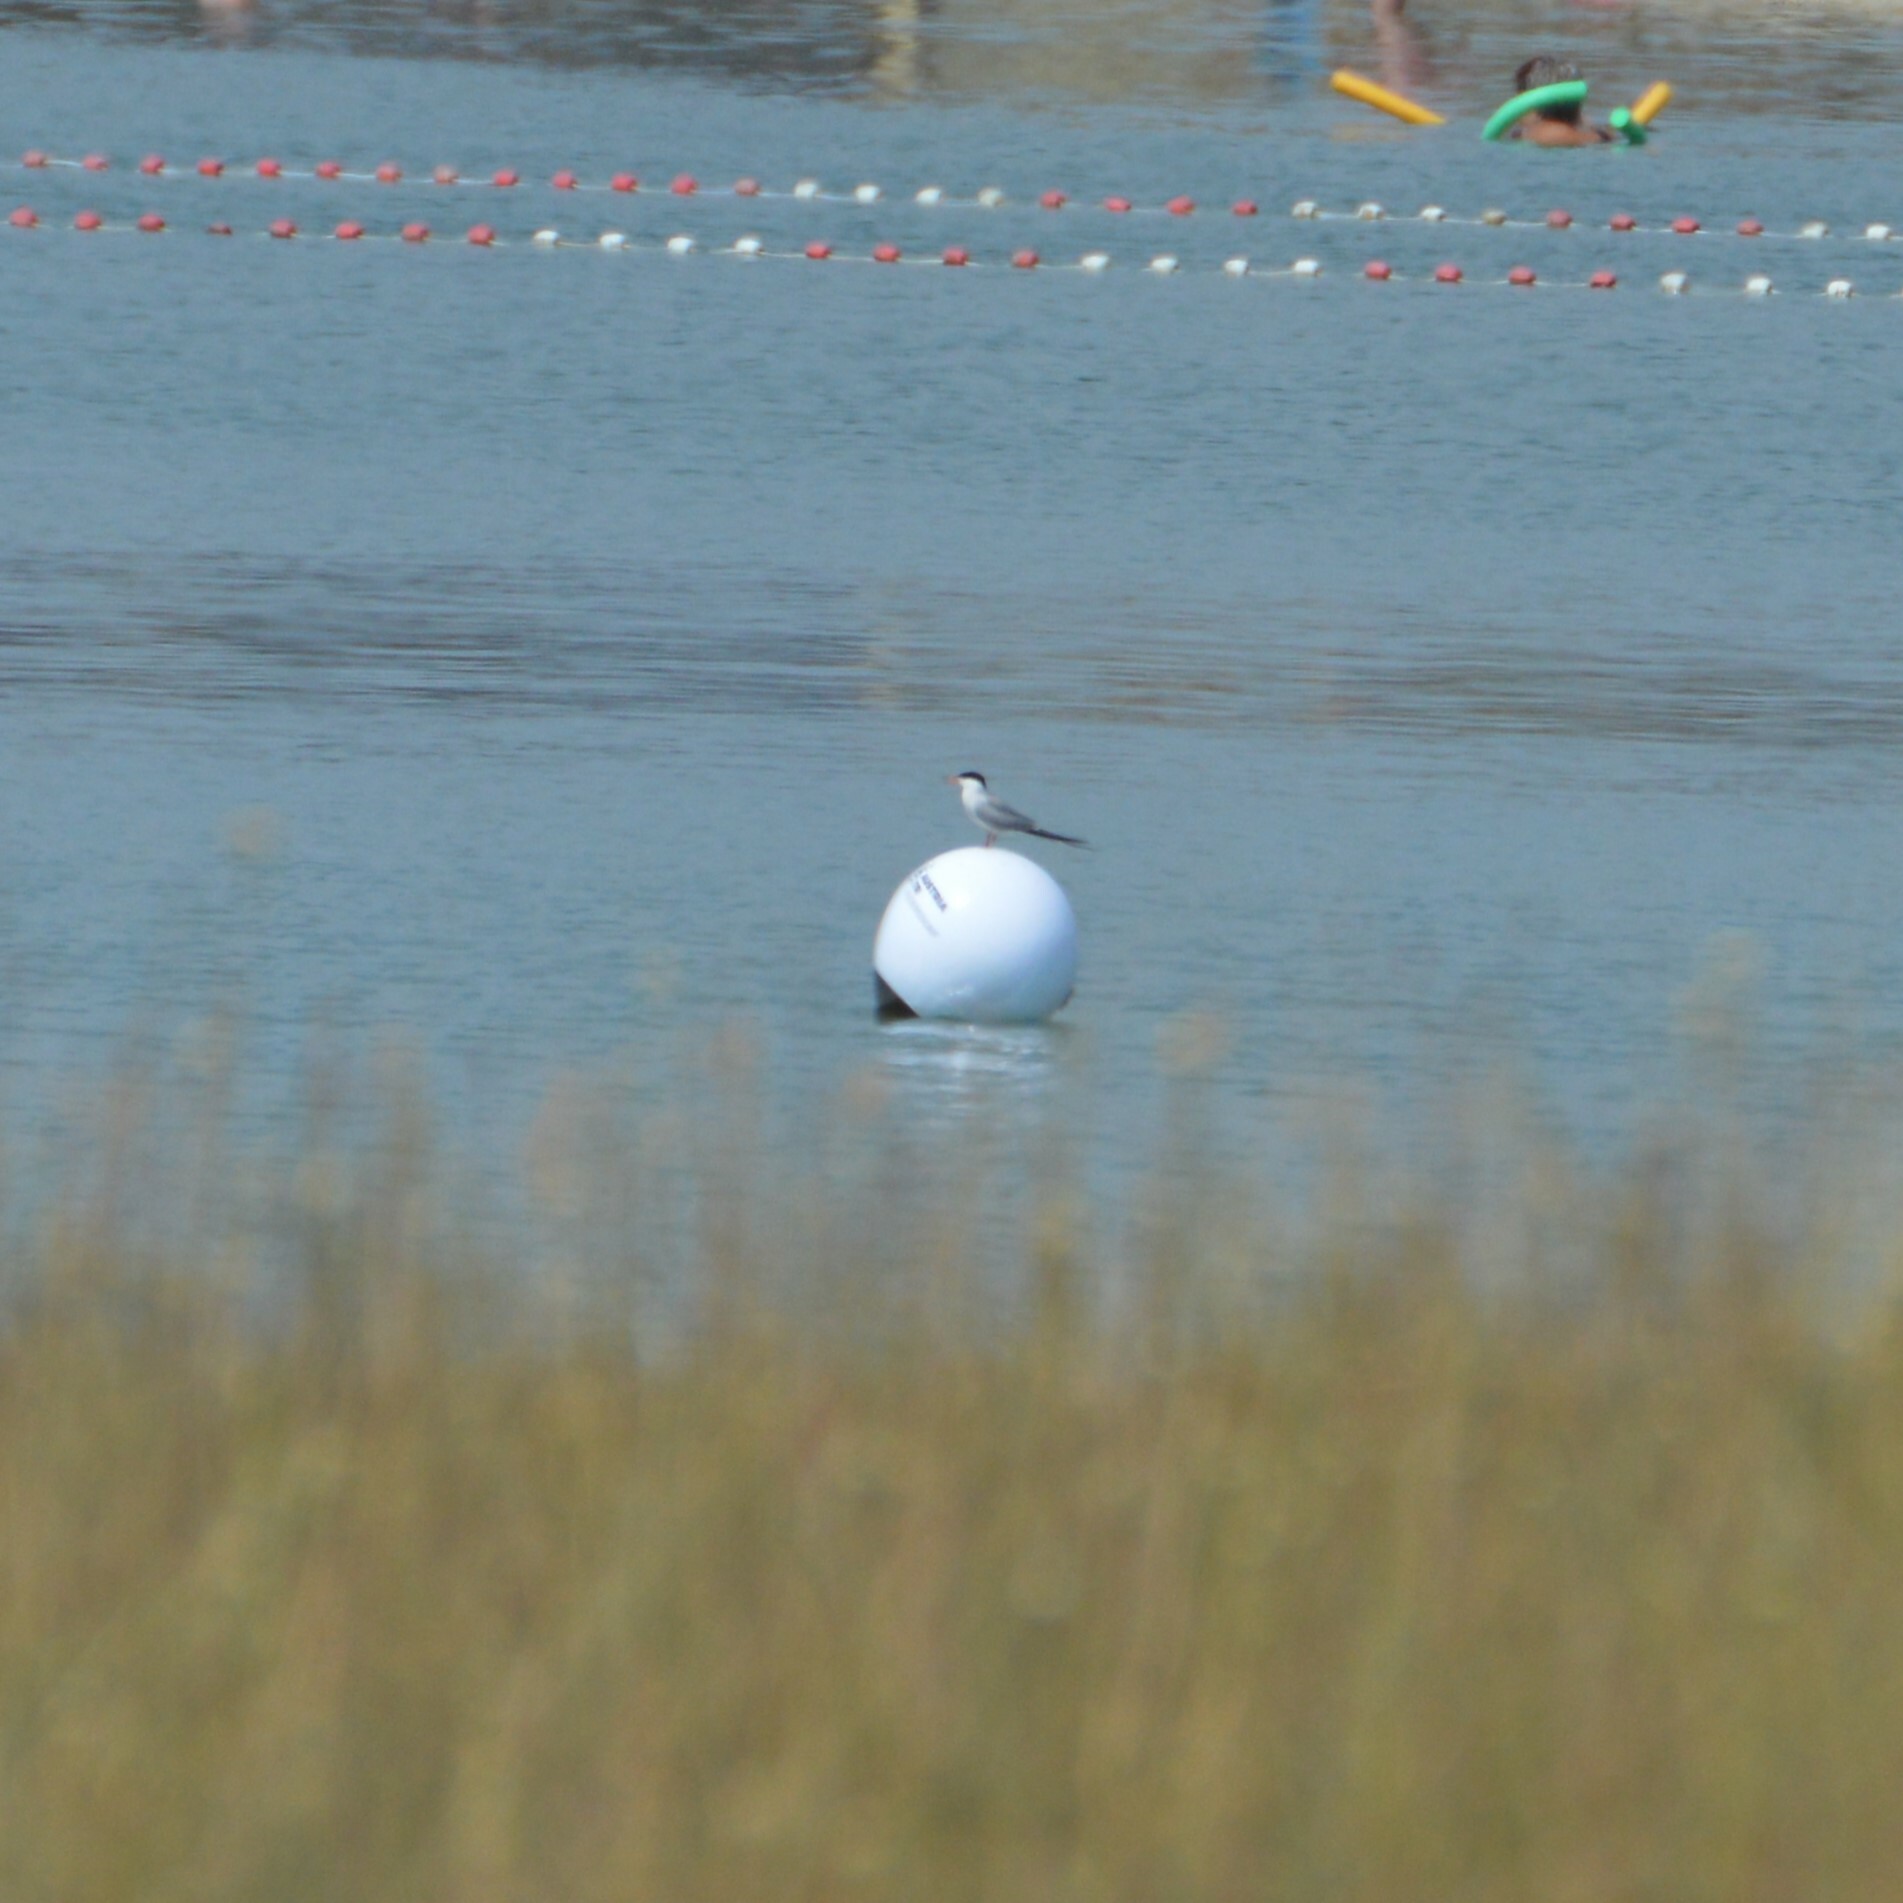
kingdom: Animalia
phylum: Chordata
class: Aves
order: Charadriiformes
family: Laridae
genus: Sterna
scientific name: Sterna hirundo
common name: Common tern
